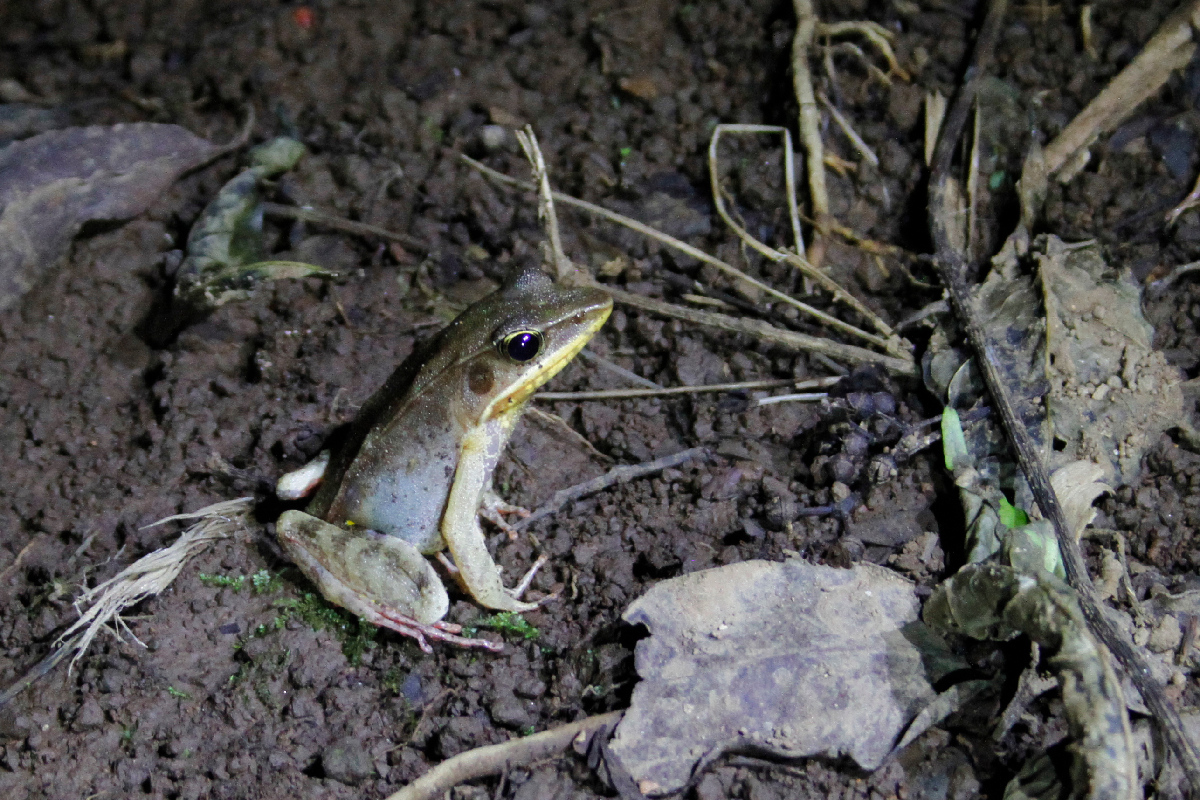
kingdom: Animalia
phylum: Chordata
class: Amphibia
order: Anura
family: Ranidae
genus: Lithobates
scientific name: Lithobates warszewitschii
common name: Warszewitsch's frog
